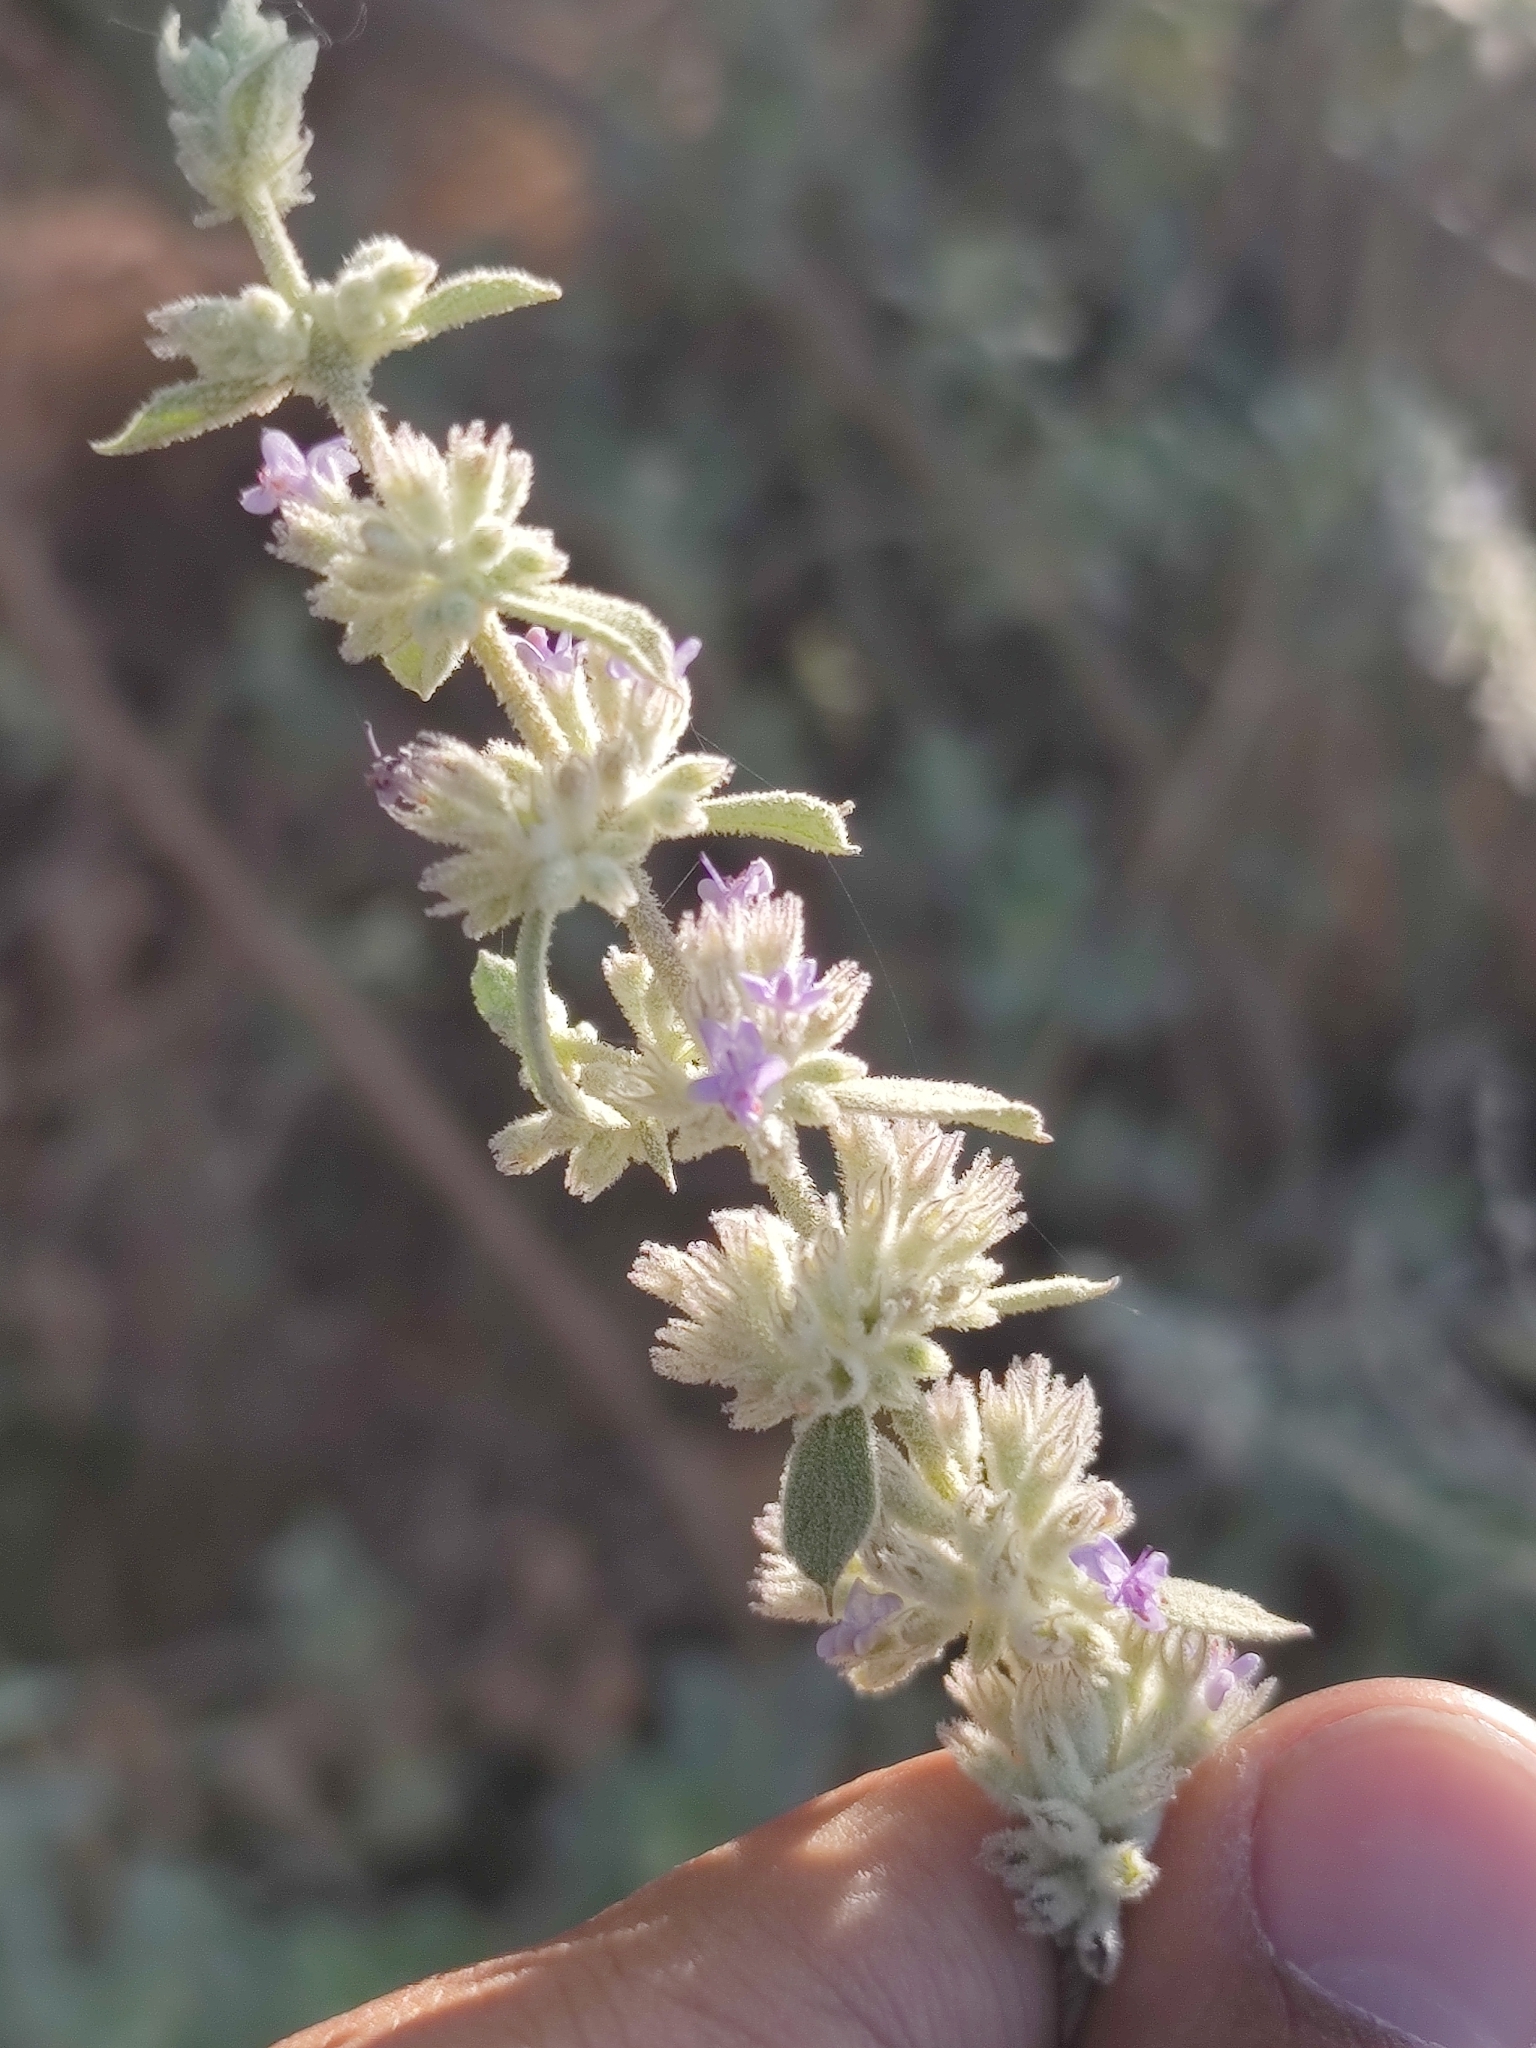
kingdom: Plantae
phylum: Tracheophyta
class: Magnoliopsida
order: Lamiales
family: Lamiaceae
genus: Condea
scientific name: Condea albida
